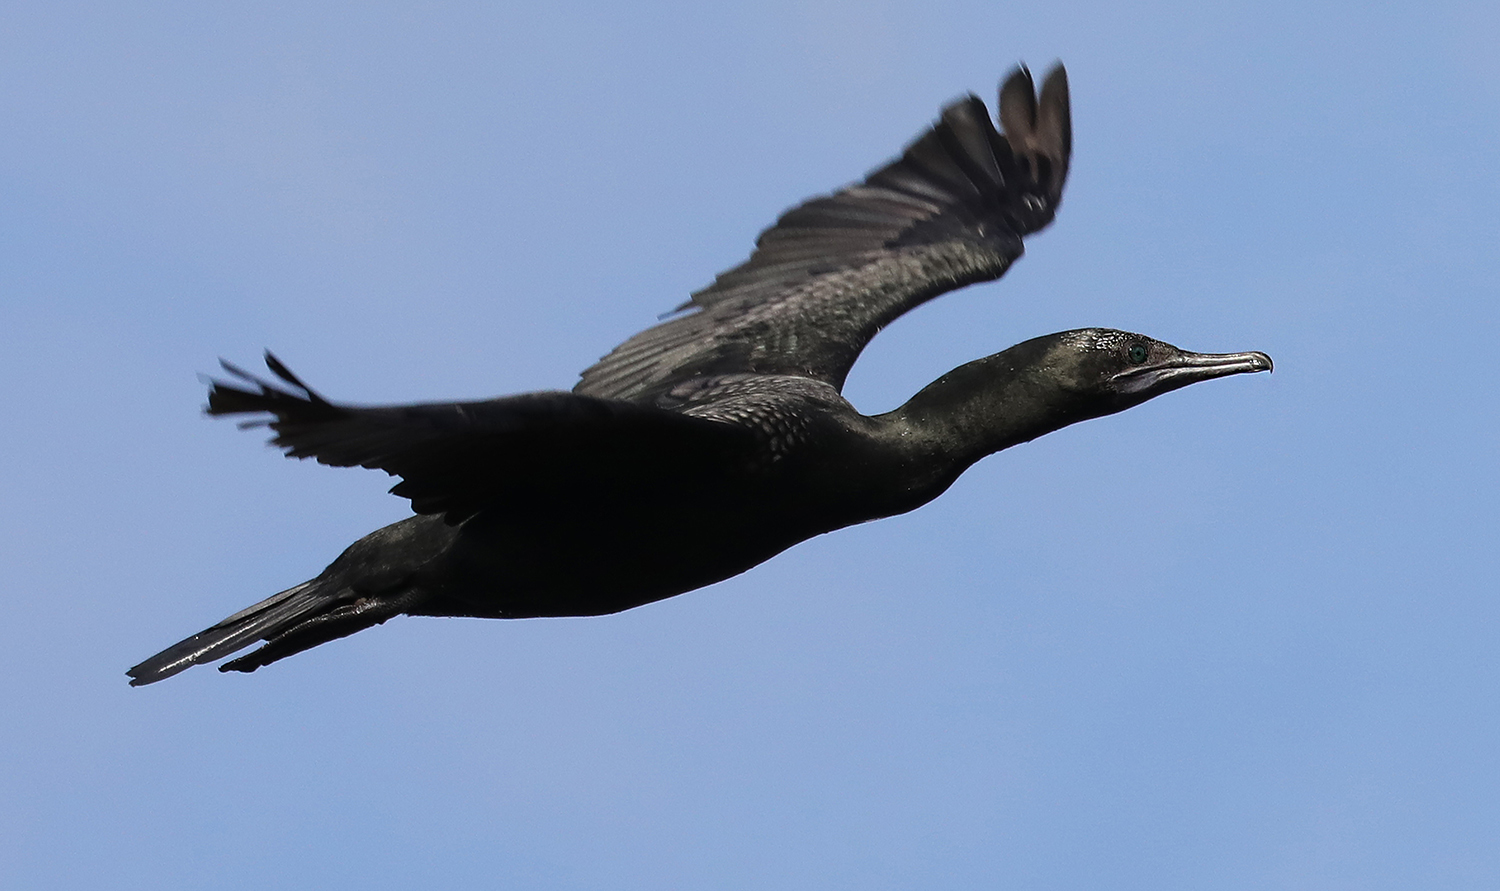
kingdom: Animalia
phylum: Chordata
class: Aves
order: Suliformes
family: Phalacrocoracidae
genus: Phalacrocorax
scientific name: Phalacrocorax sulcirostris
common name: Little black cormorant
